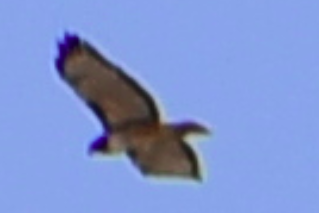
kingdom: Animalia
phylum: Chordata
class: Aves
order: Accipitriformes
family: Accipitridae
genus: Buteo
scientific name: Buteo jamaicensis
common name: Red-tailed hawk
